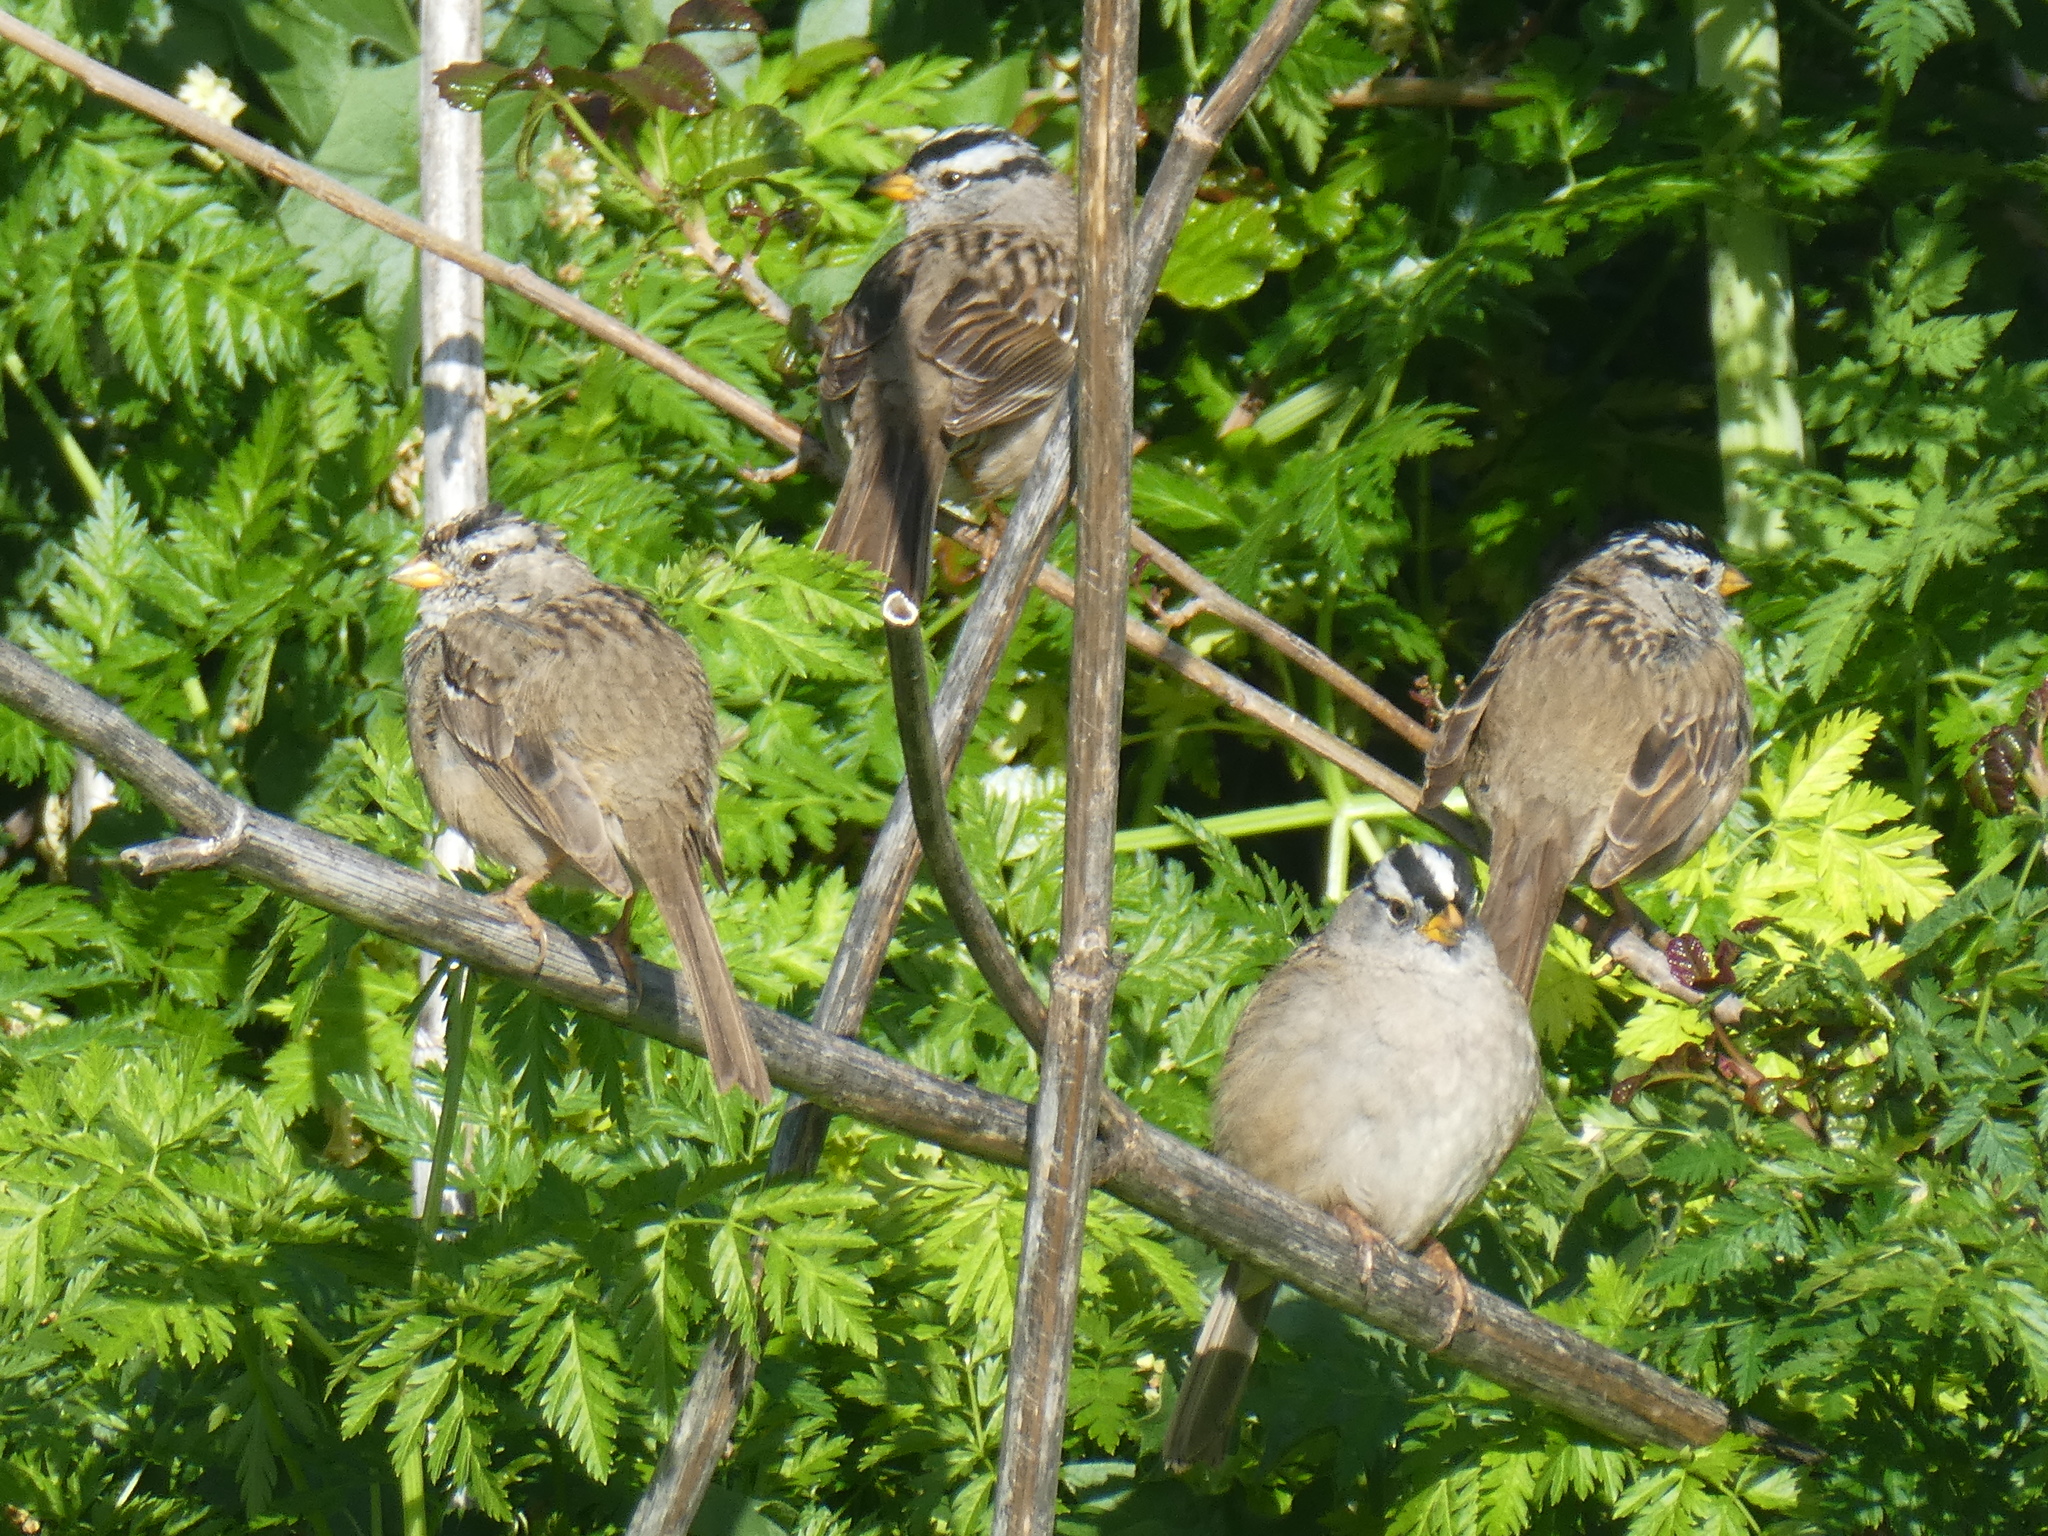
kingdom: Animalia
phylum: Chordata
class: Aves
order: Passeriformes
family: Passerellidae
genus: Zonotrichia
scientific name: Zonotrichia leucophrys
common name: White-crowned sparrow
